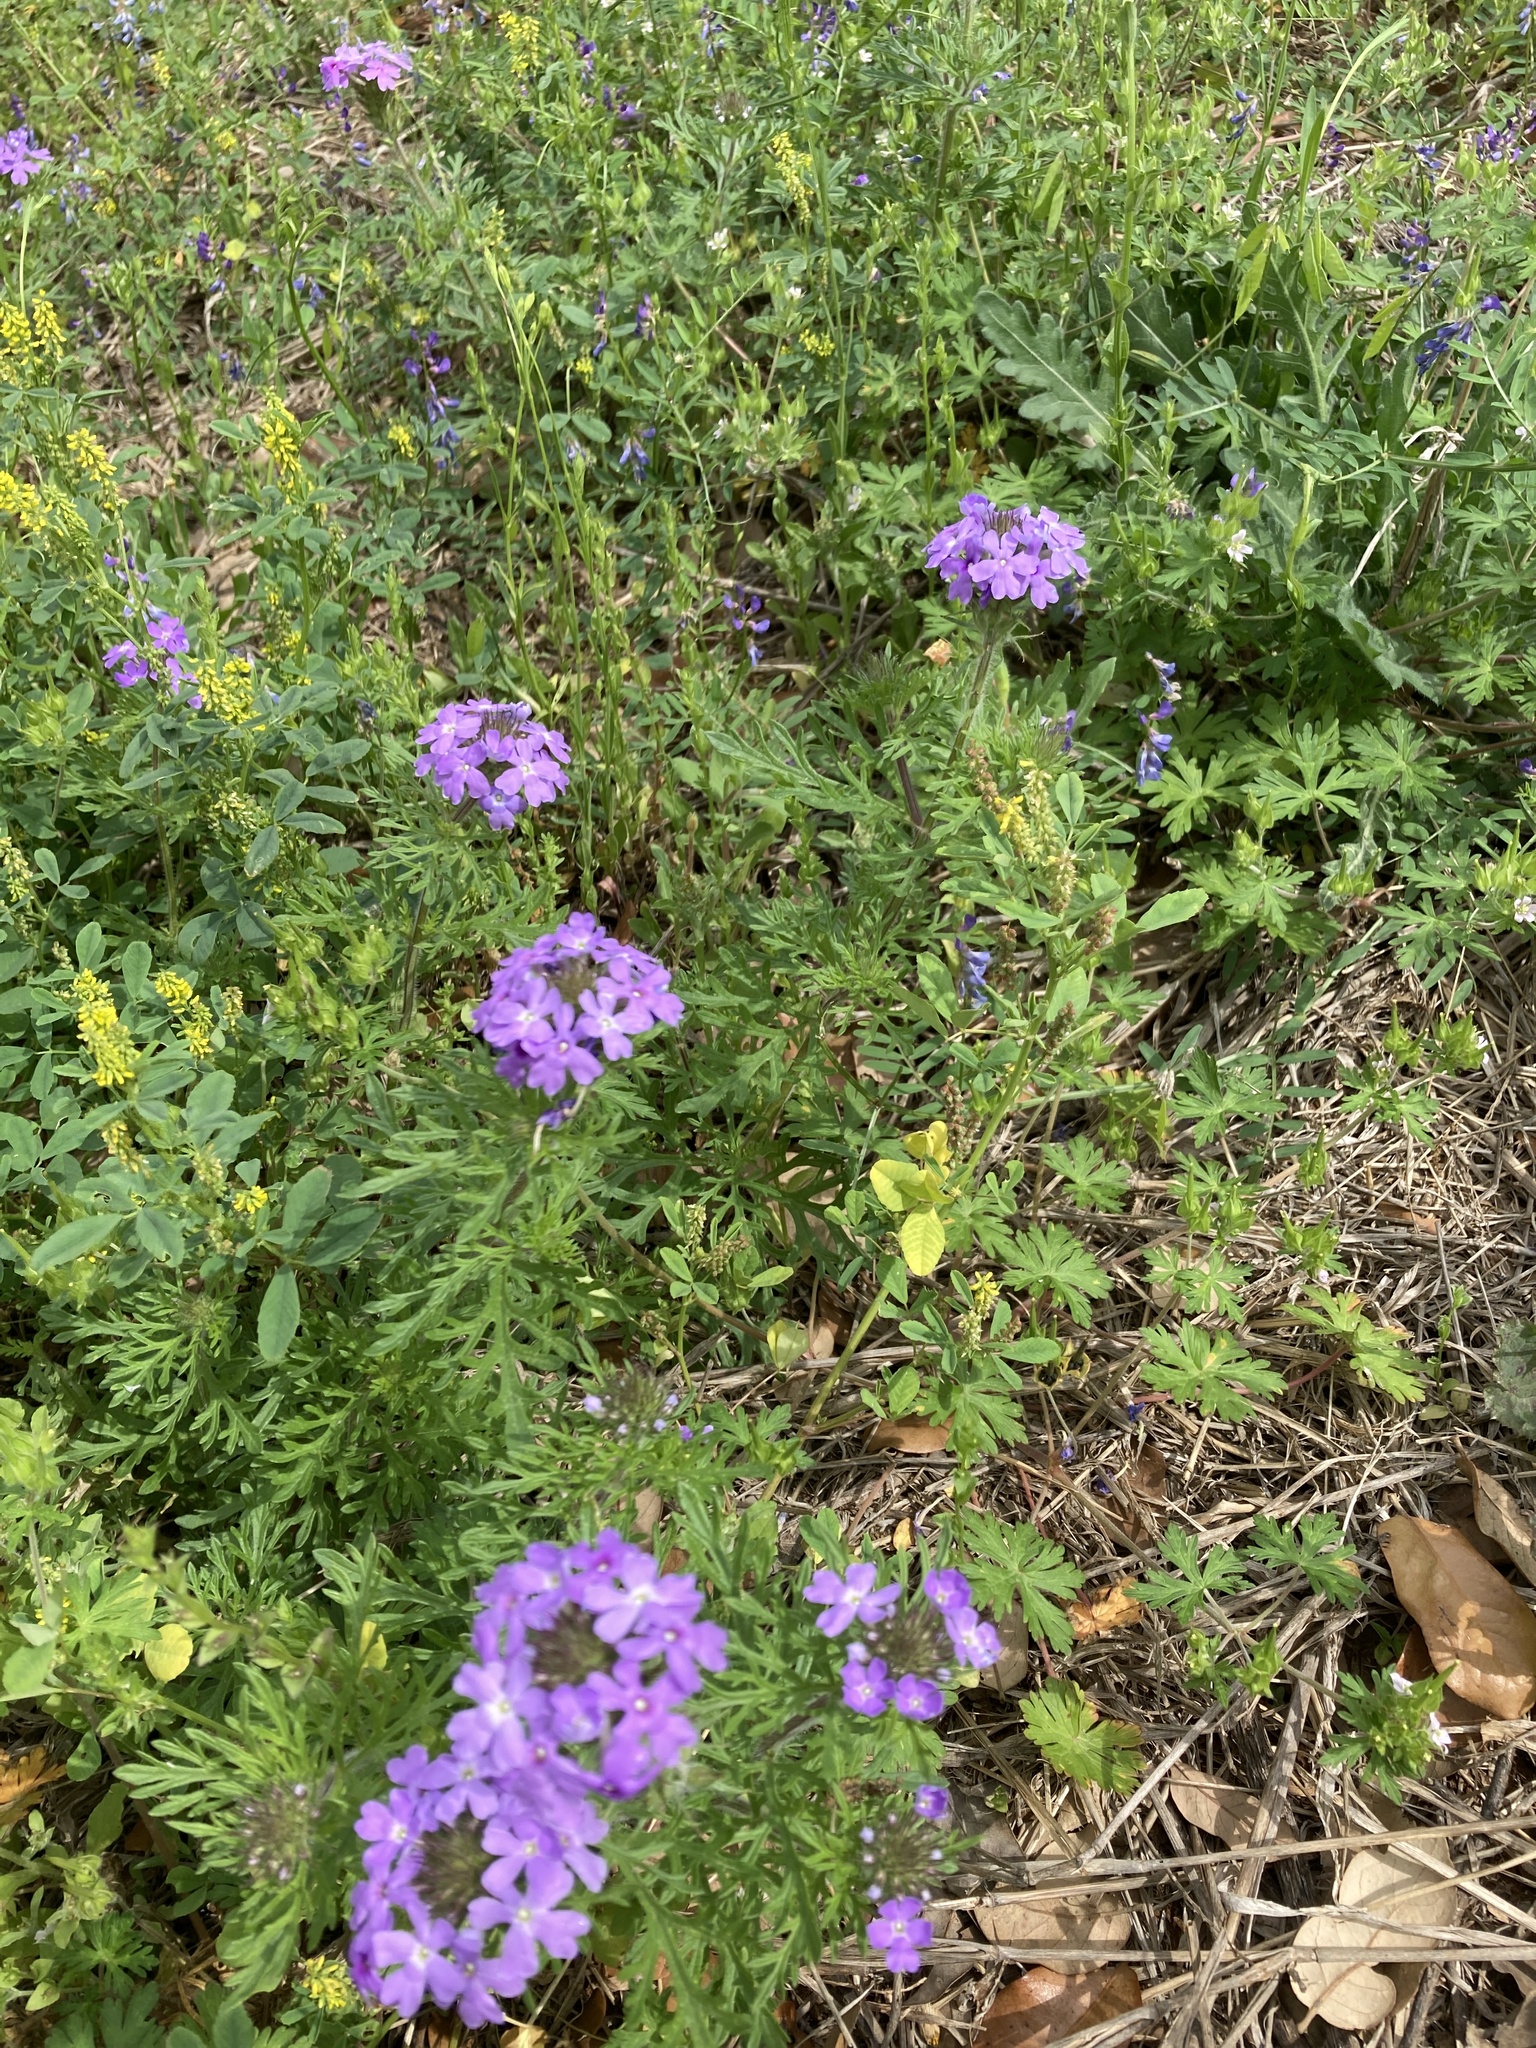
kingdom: Plantae
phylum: Tracheophyta
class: Magnoliopsida
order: Lamiales
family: Verbenaceae
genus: Verbena
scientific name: Verbena bipinnatifida
